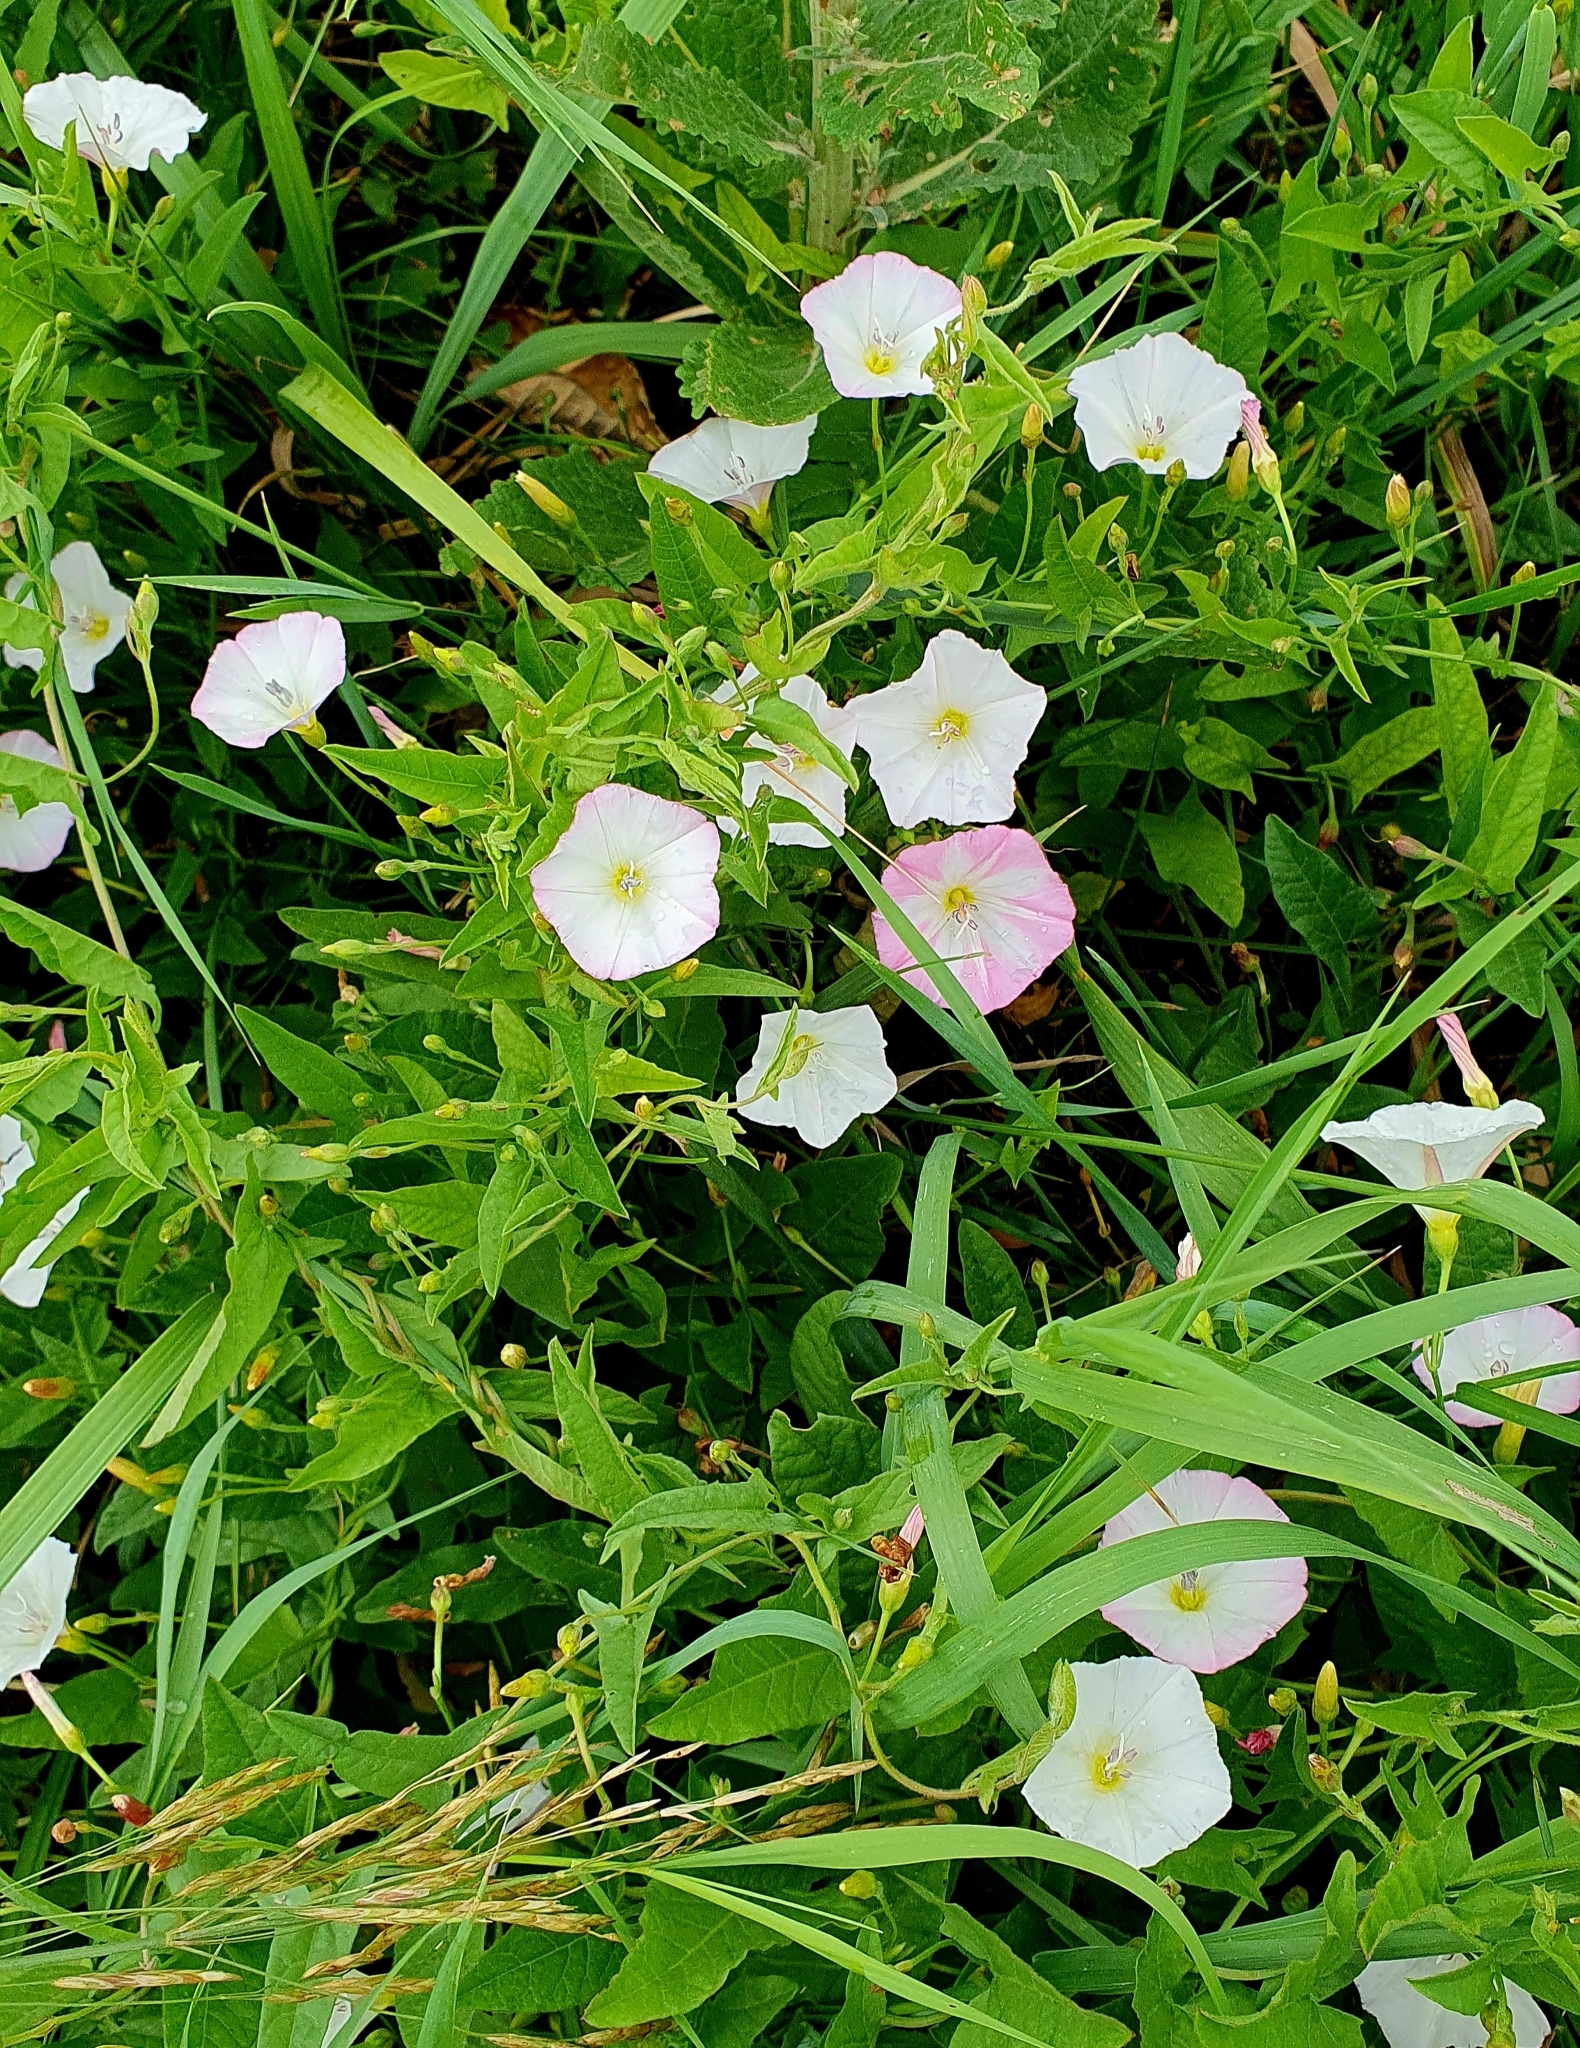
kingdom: Plantae
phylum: Tracheophyta
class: Magnoliopsida
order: Solanales
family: Convolvulaceae
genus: Convolvulus
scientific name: Convolvulus arvensis
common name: Field bindweed
